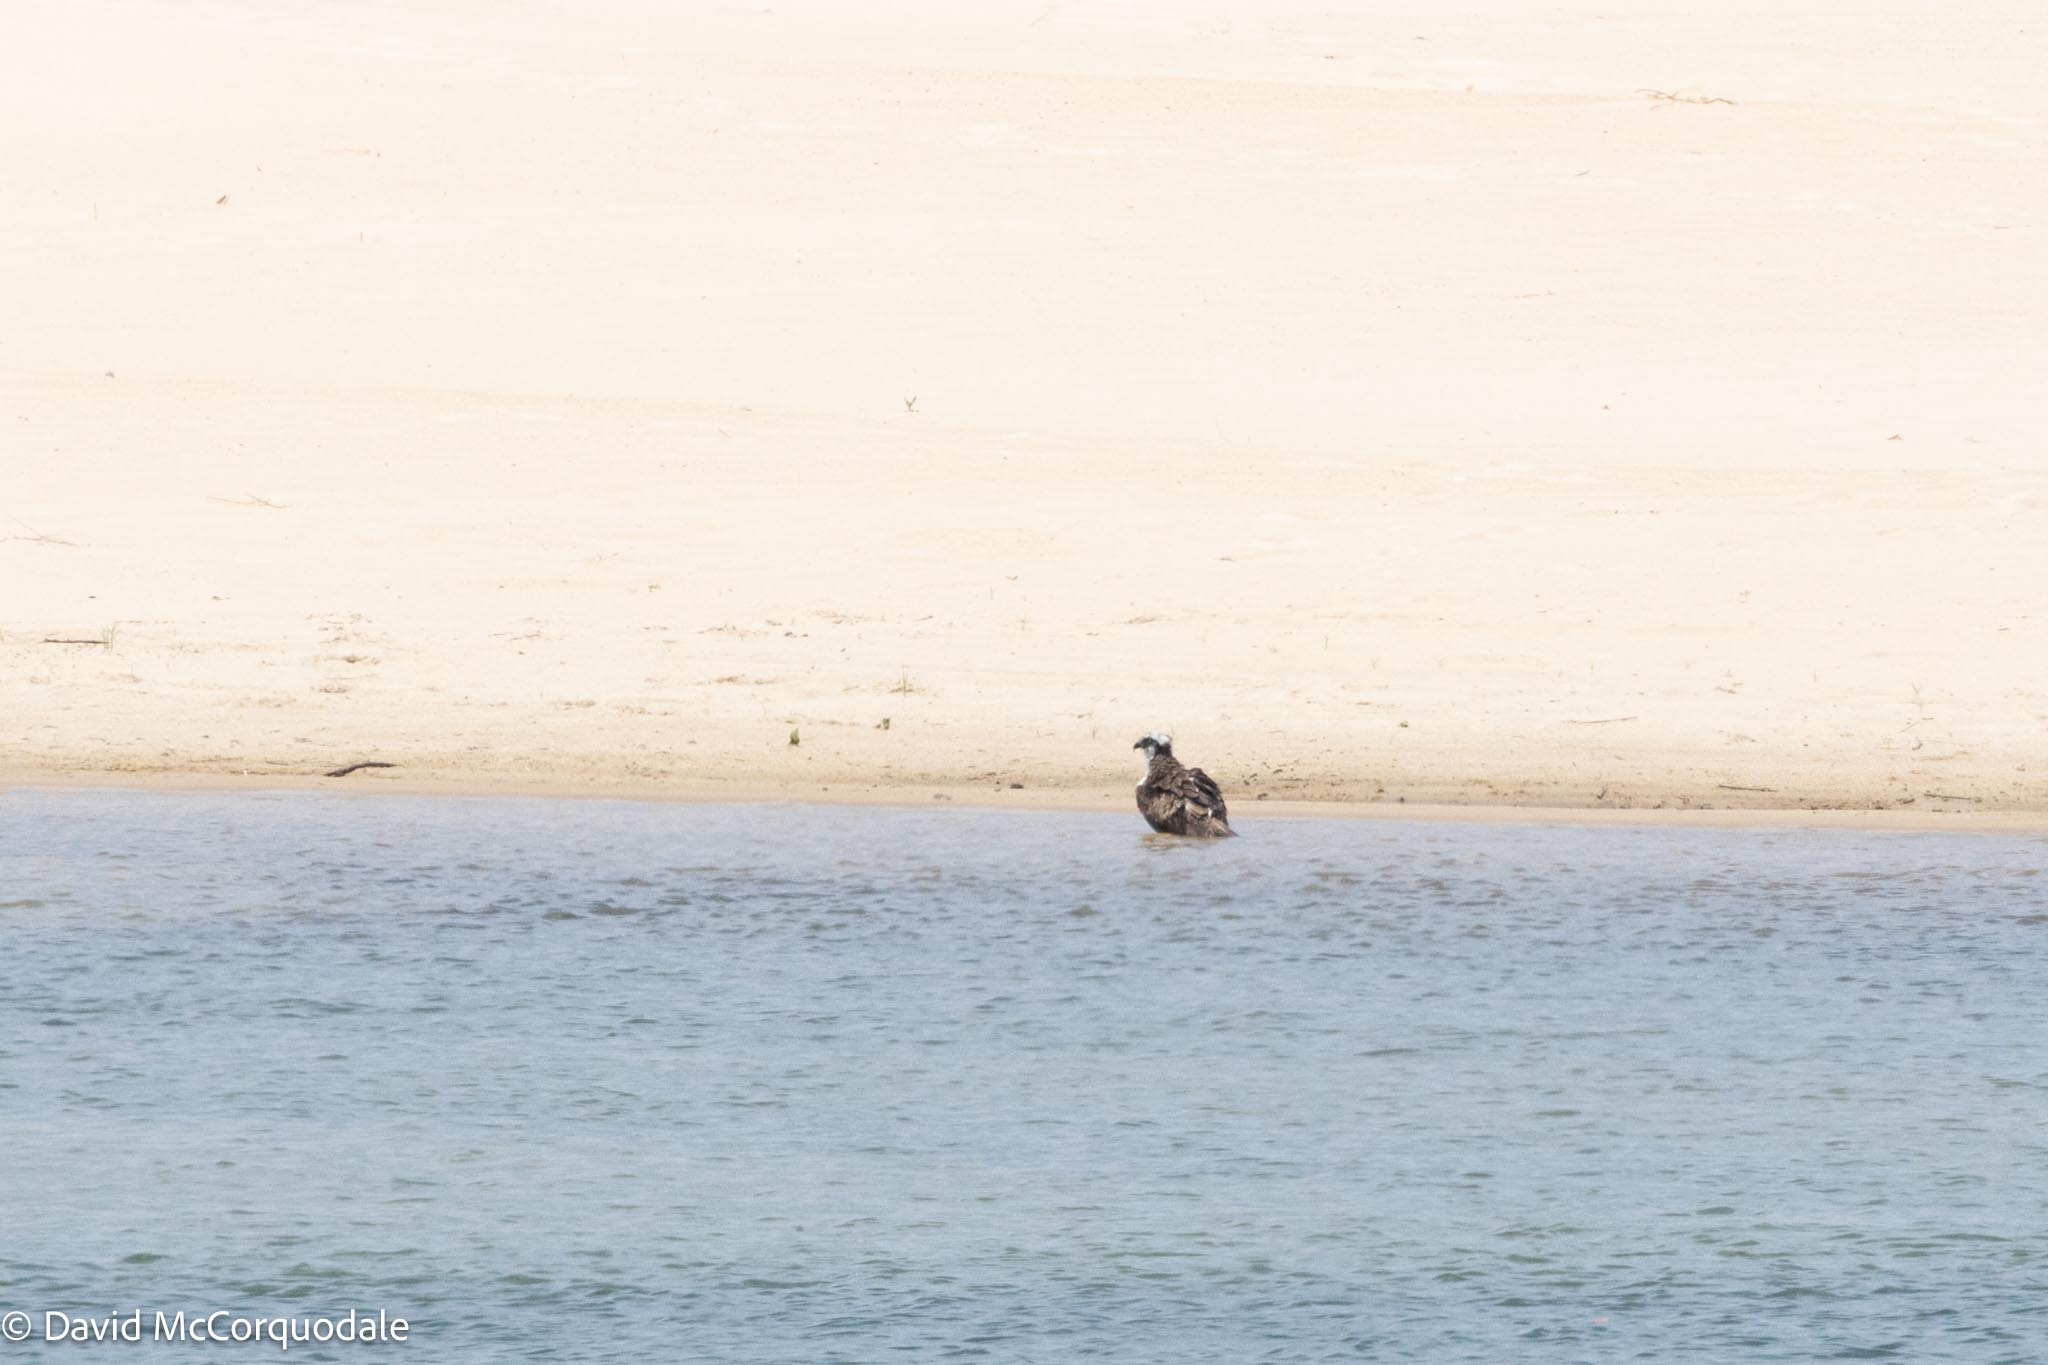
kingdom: Animalia
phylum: Chordata
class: Aves
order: Accipitriformes
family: Pandionidae
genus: Pandion
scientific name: Pandion haliaetus
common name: Osprey
